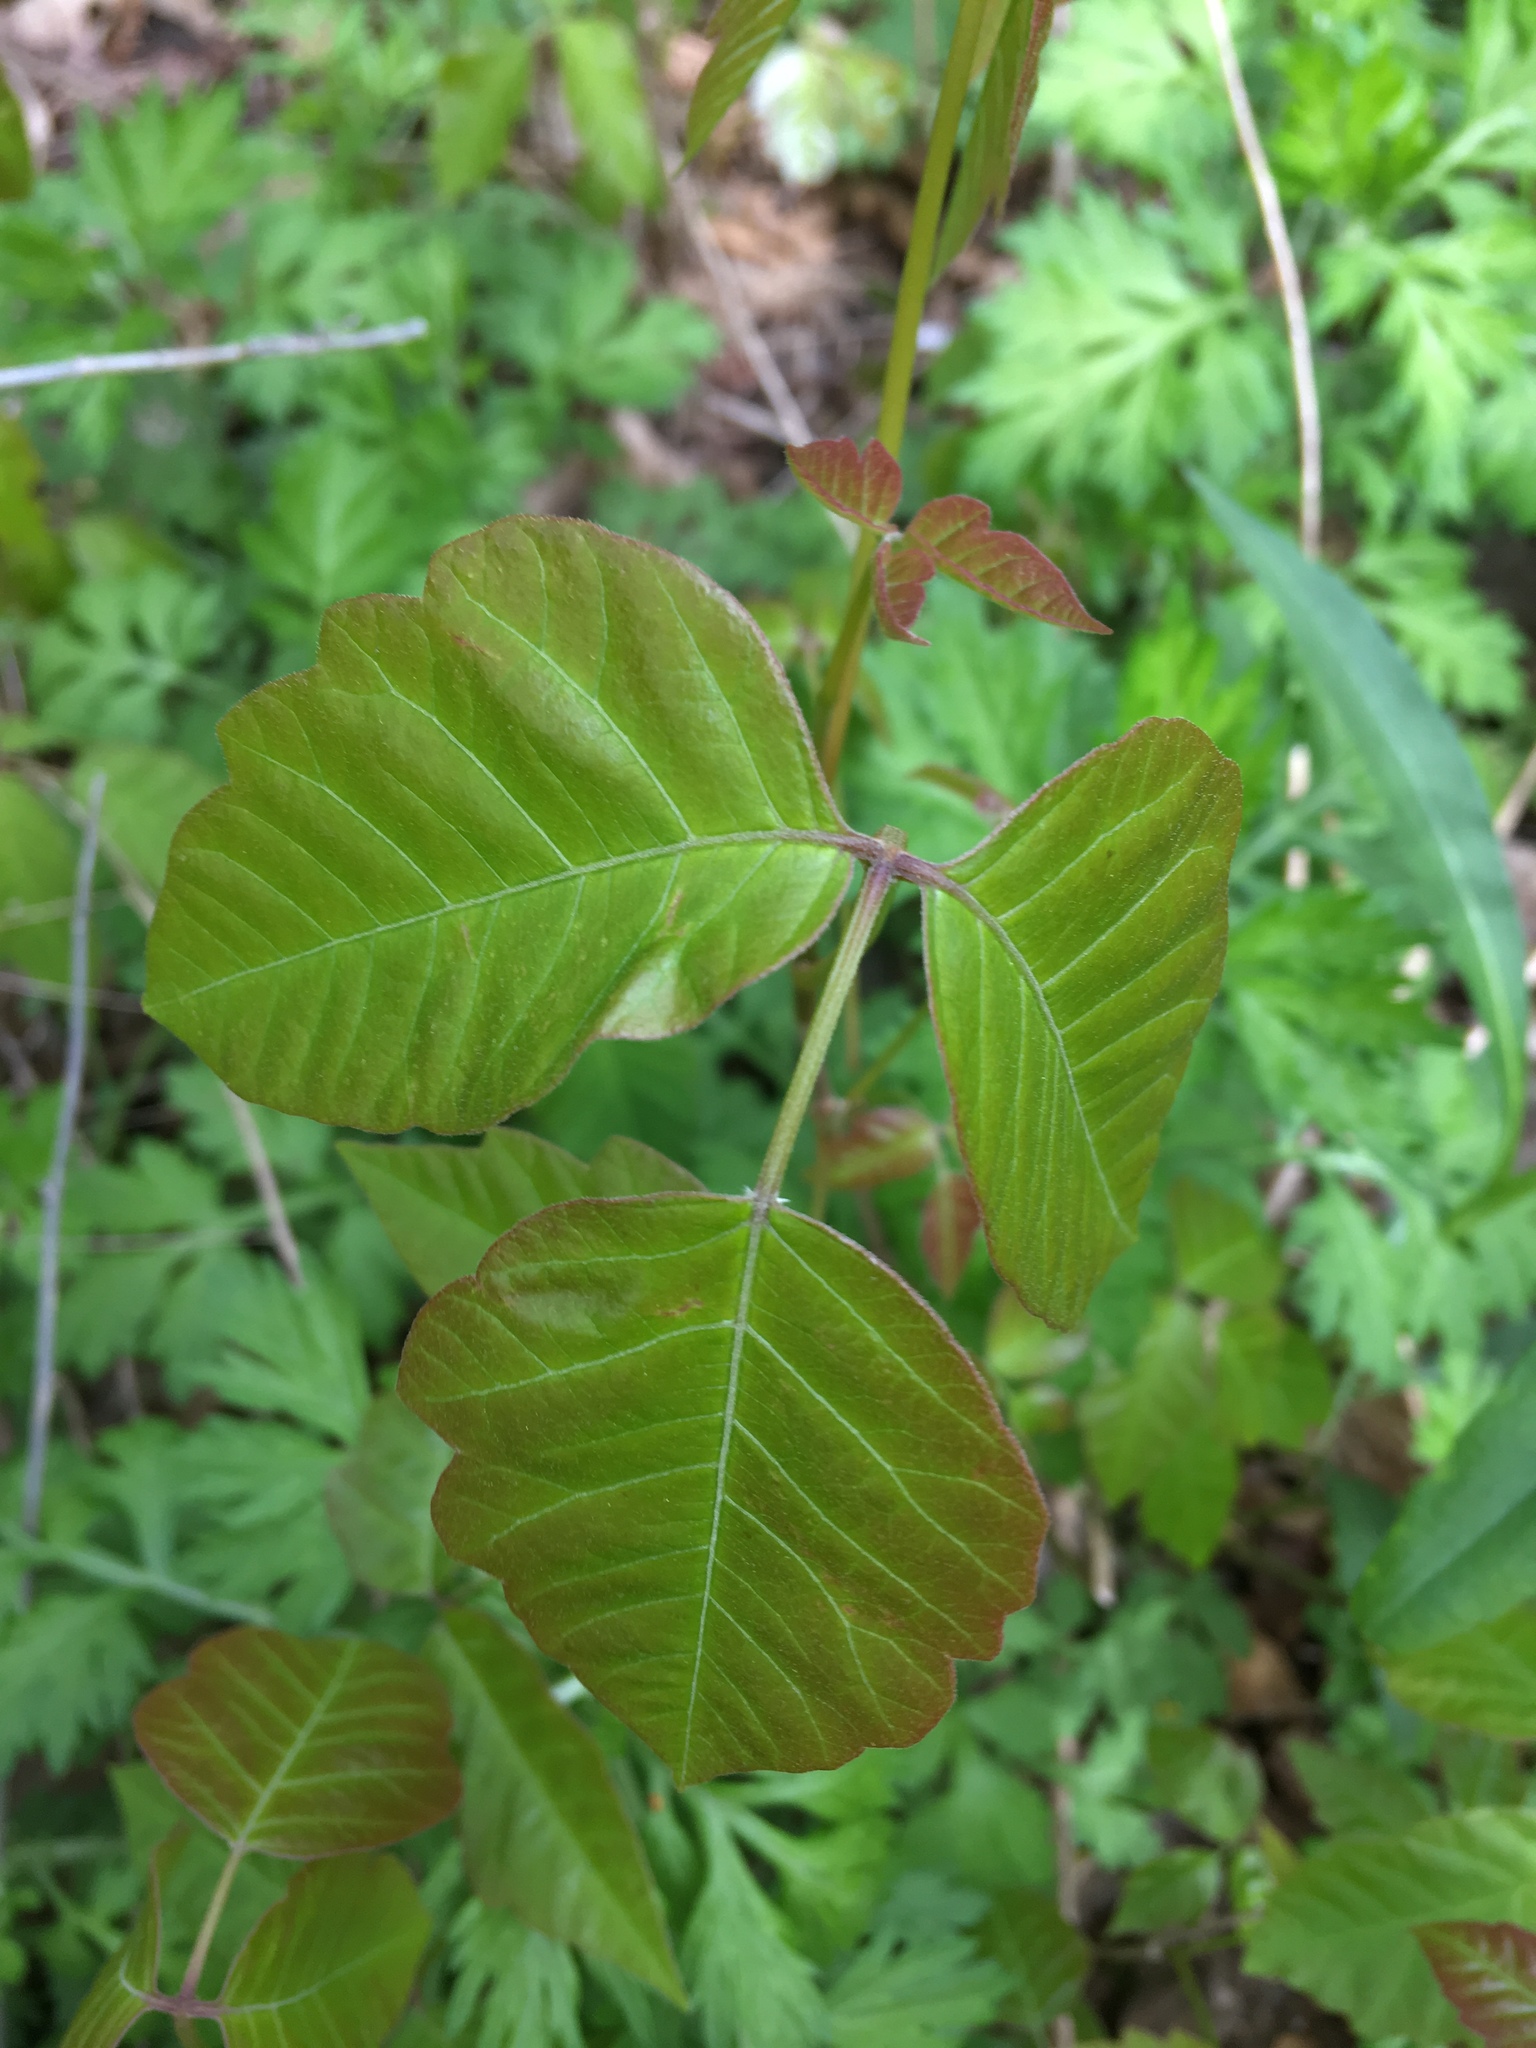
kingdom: Plantae
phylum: Tracheophyta
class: Magnoliopsida
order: Sapindales
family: Anacardiaceae
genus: Toxicodendron
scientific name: Toxicodendron radicans
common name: Poison ivy
